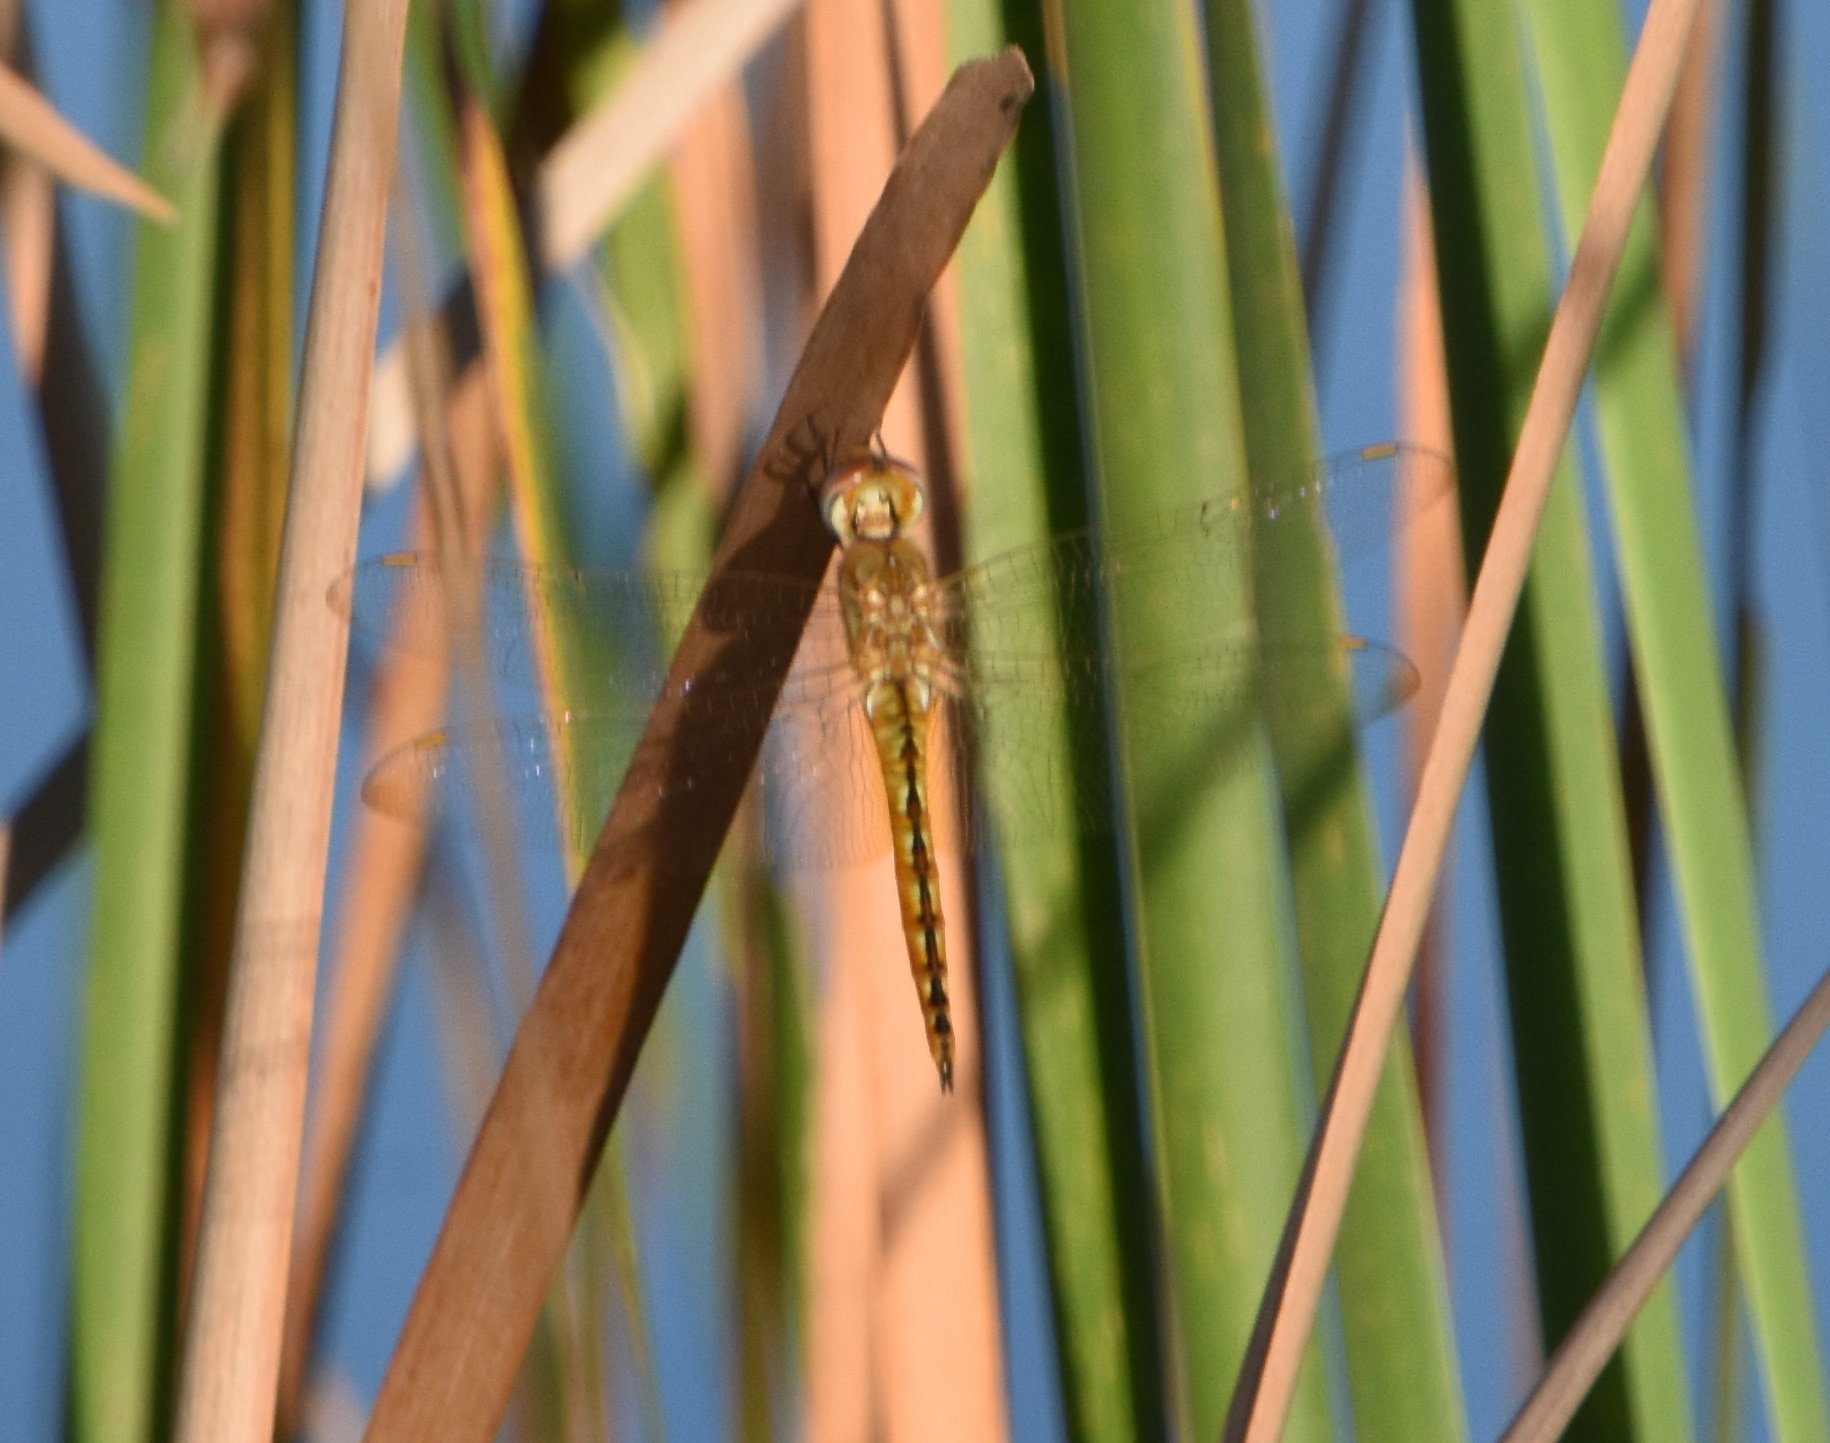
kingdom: Animalia
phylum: Arthropoda
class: Insecta
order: Odonata
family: Libellulidae
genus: Pantala
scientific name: Pantala flavescens
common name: Wandering glider
